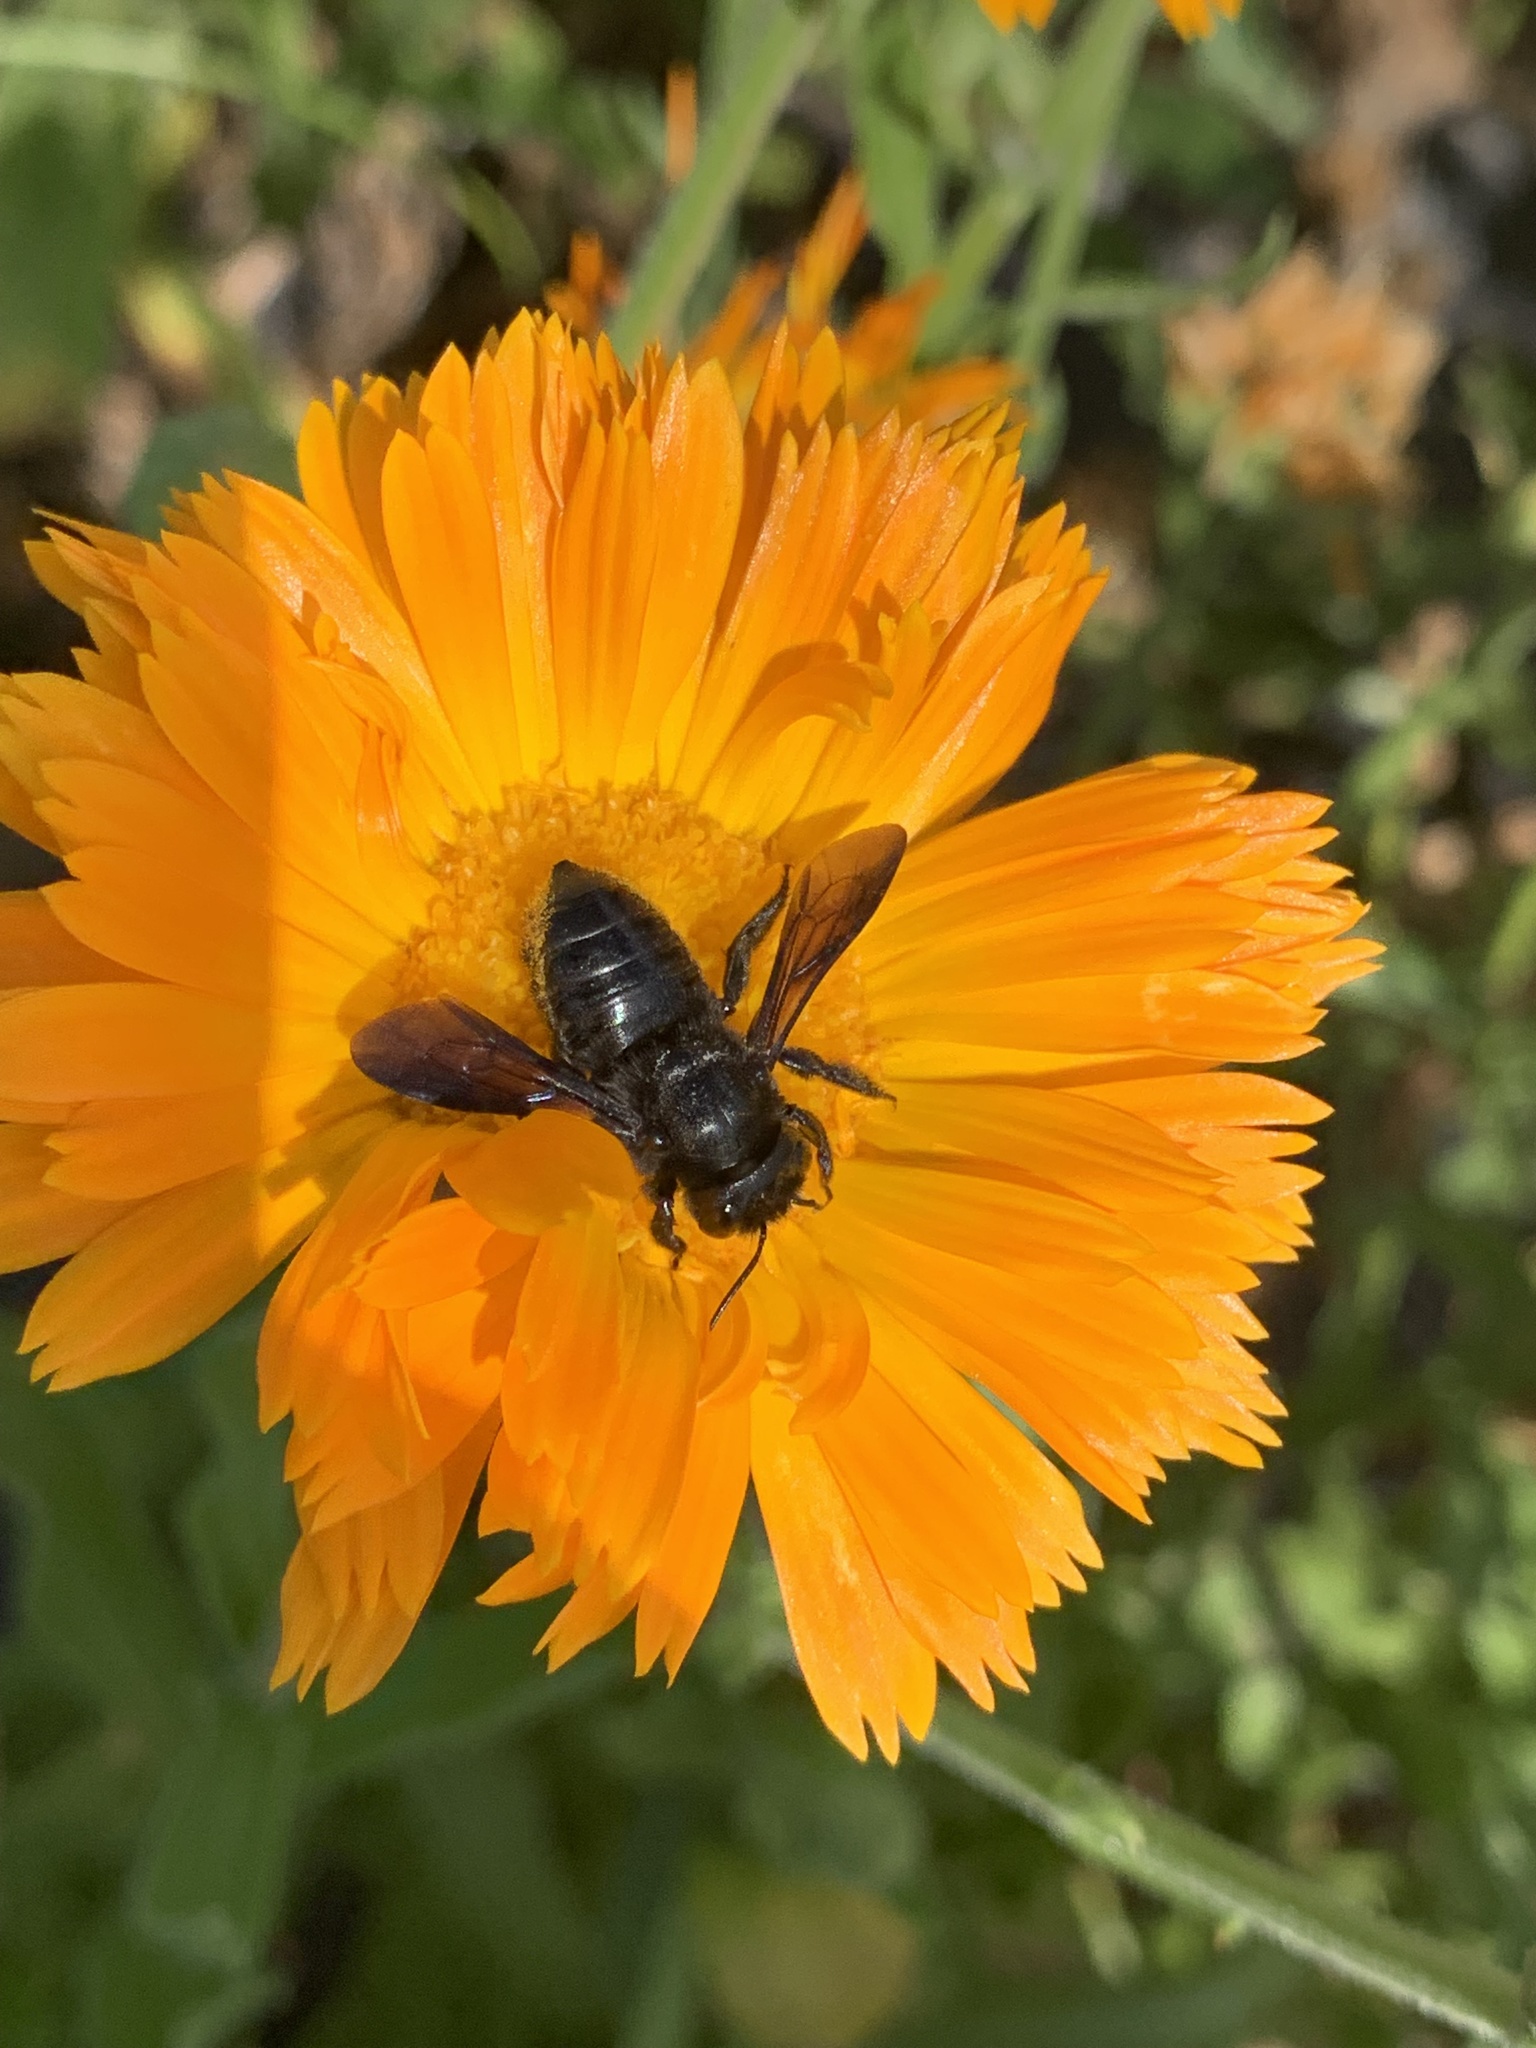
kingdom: Animalia
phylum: Arthropoda
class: Insecta
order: Hymenoptera
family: Megachilidae
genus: Megachile
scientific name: Megachile xylocopoides
